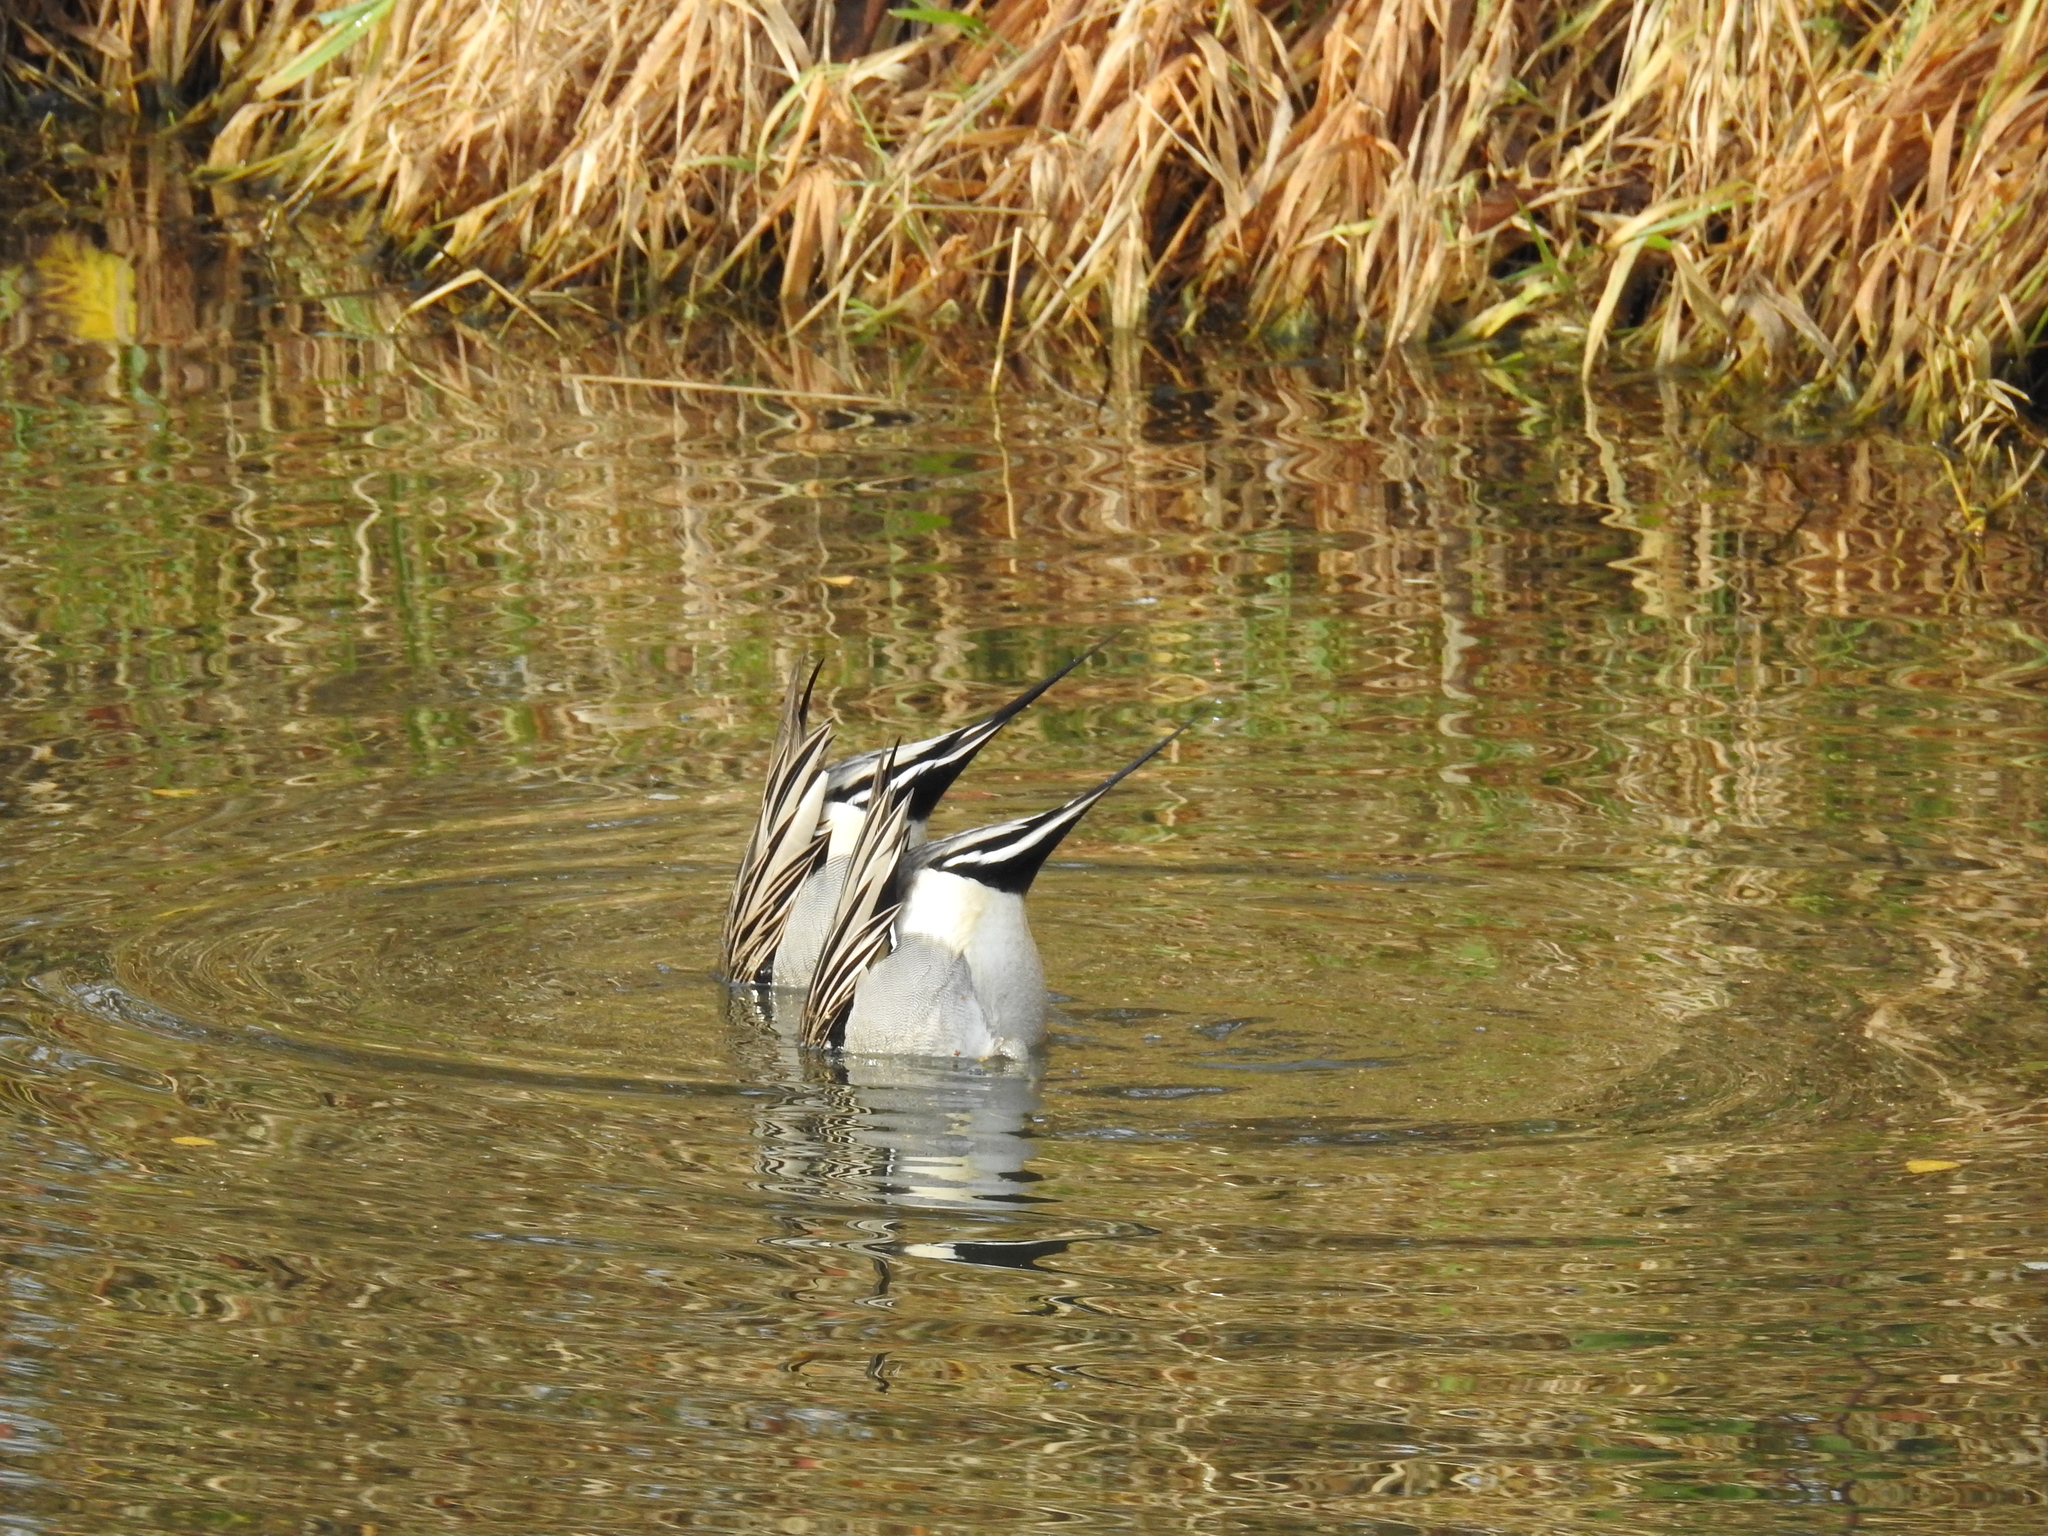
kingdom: Animalia
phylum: Chordata
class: Aves
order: Anseriformes
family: Anatidae
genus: Anas
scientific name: Anas acuta
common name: Northern pintail
